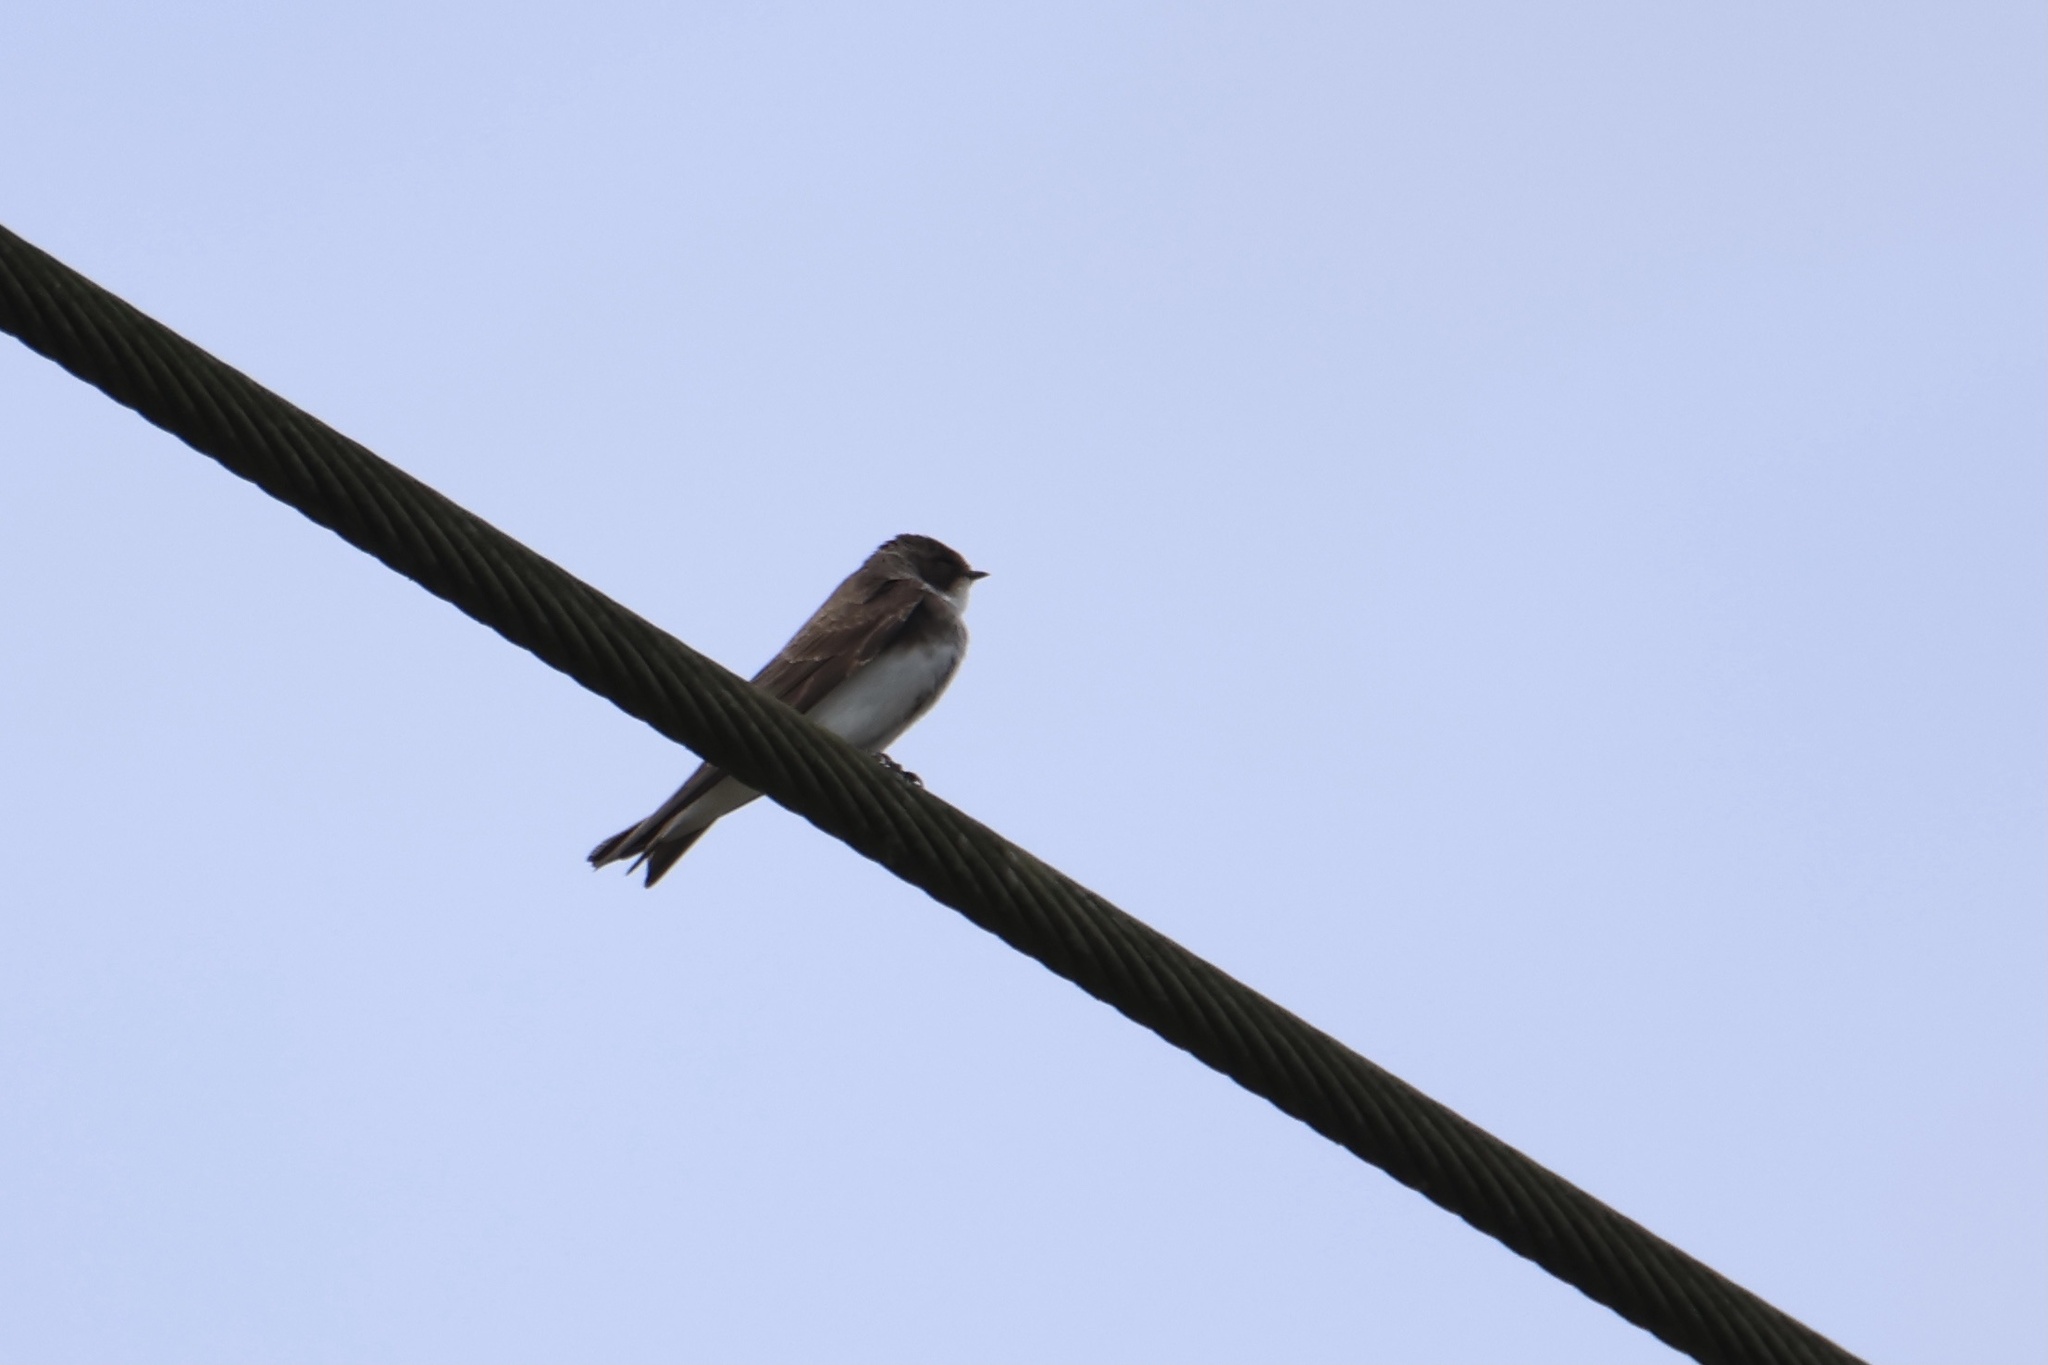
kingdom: Animalia
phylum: Chordata
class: Aves
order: Passeriformes
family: Hirundinidae
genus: Riparia
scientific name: Riparia riparia
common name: Sand martin
